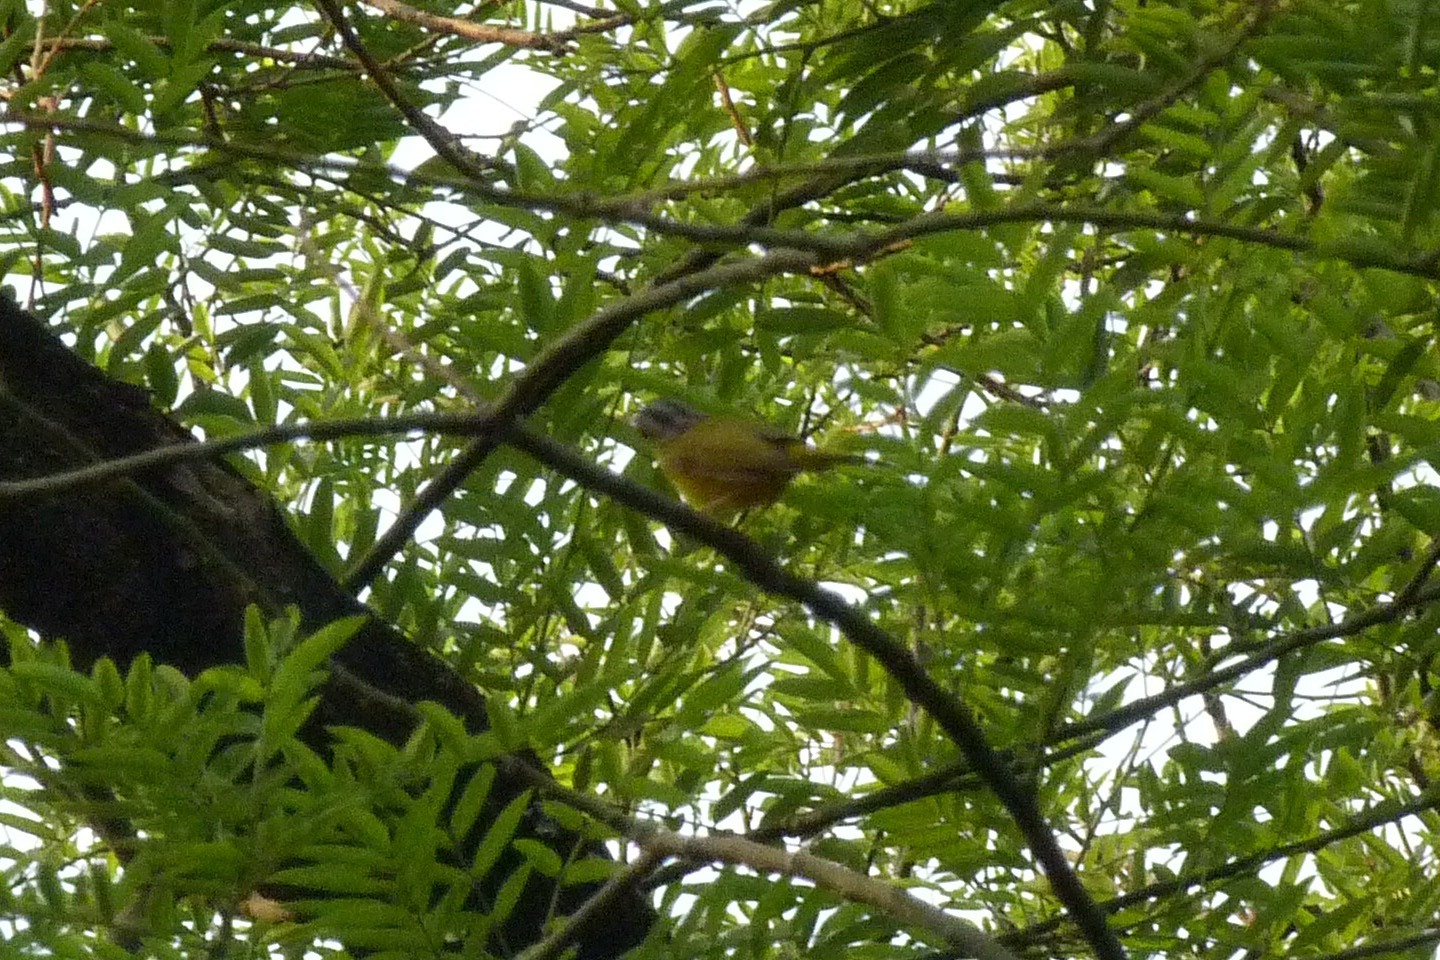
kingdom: Animalia
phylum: Chordata
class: Aves
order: Passeriformes
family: Phylloscopidae
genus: Seicercus
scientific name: Seicercus burkii
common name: Green-crowned warbler
